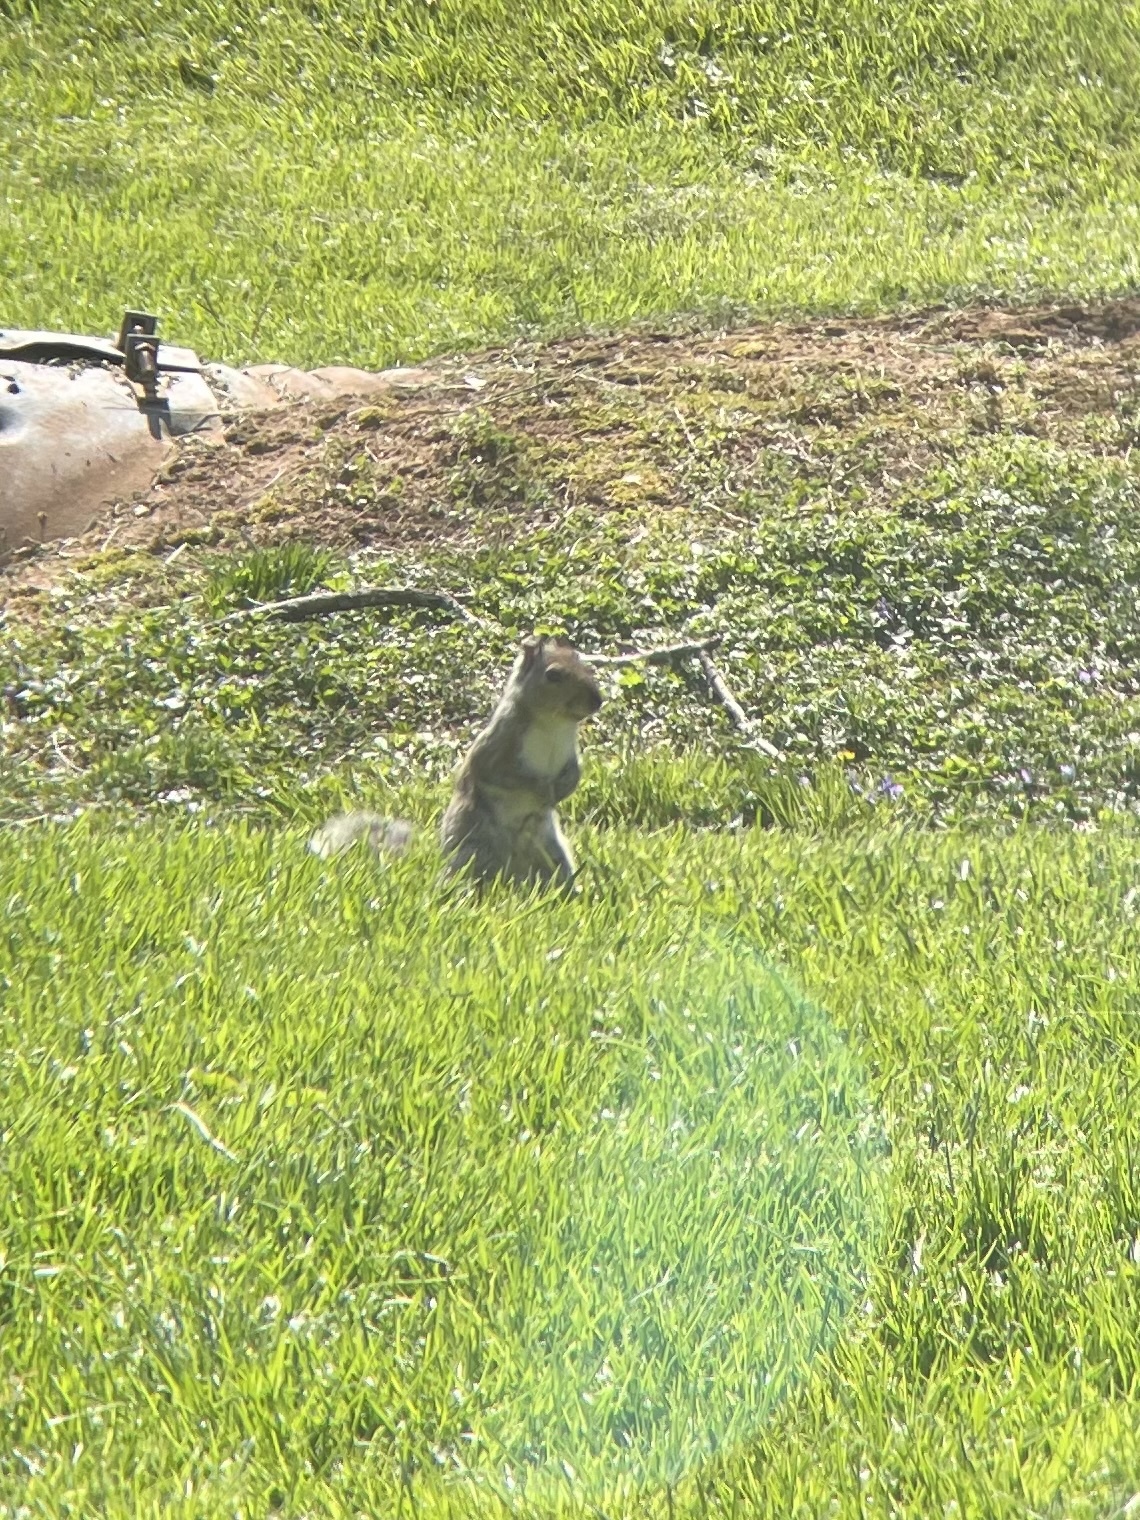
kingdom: Animalia
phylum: Chordata
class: Mammalia
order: Rodentia
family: Sciuridae
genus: Sciurus
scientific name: Sciurus carolinensis
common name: Eastern gray squirrel
